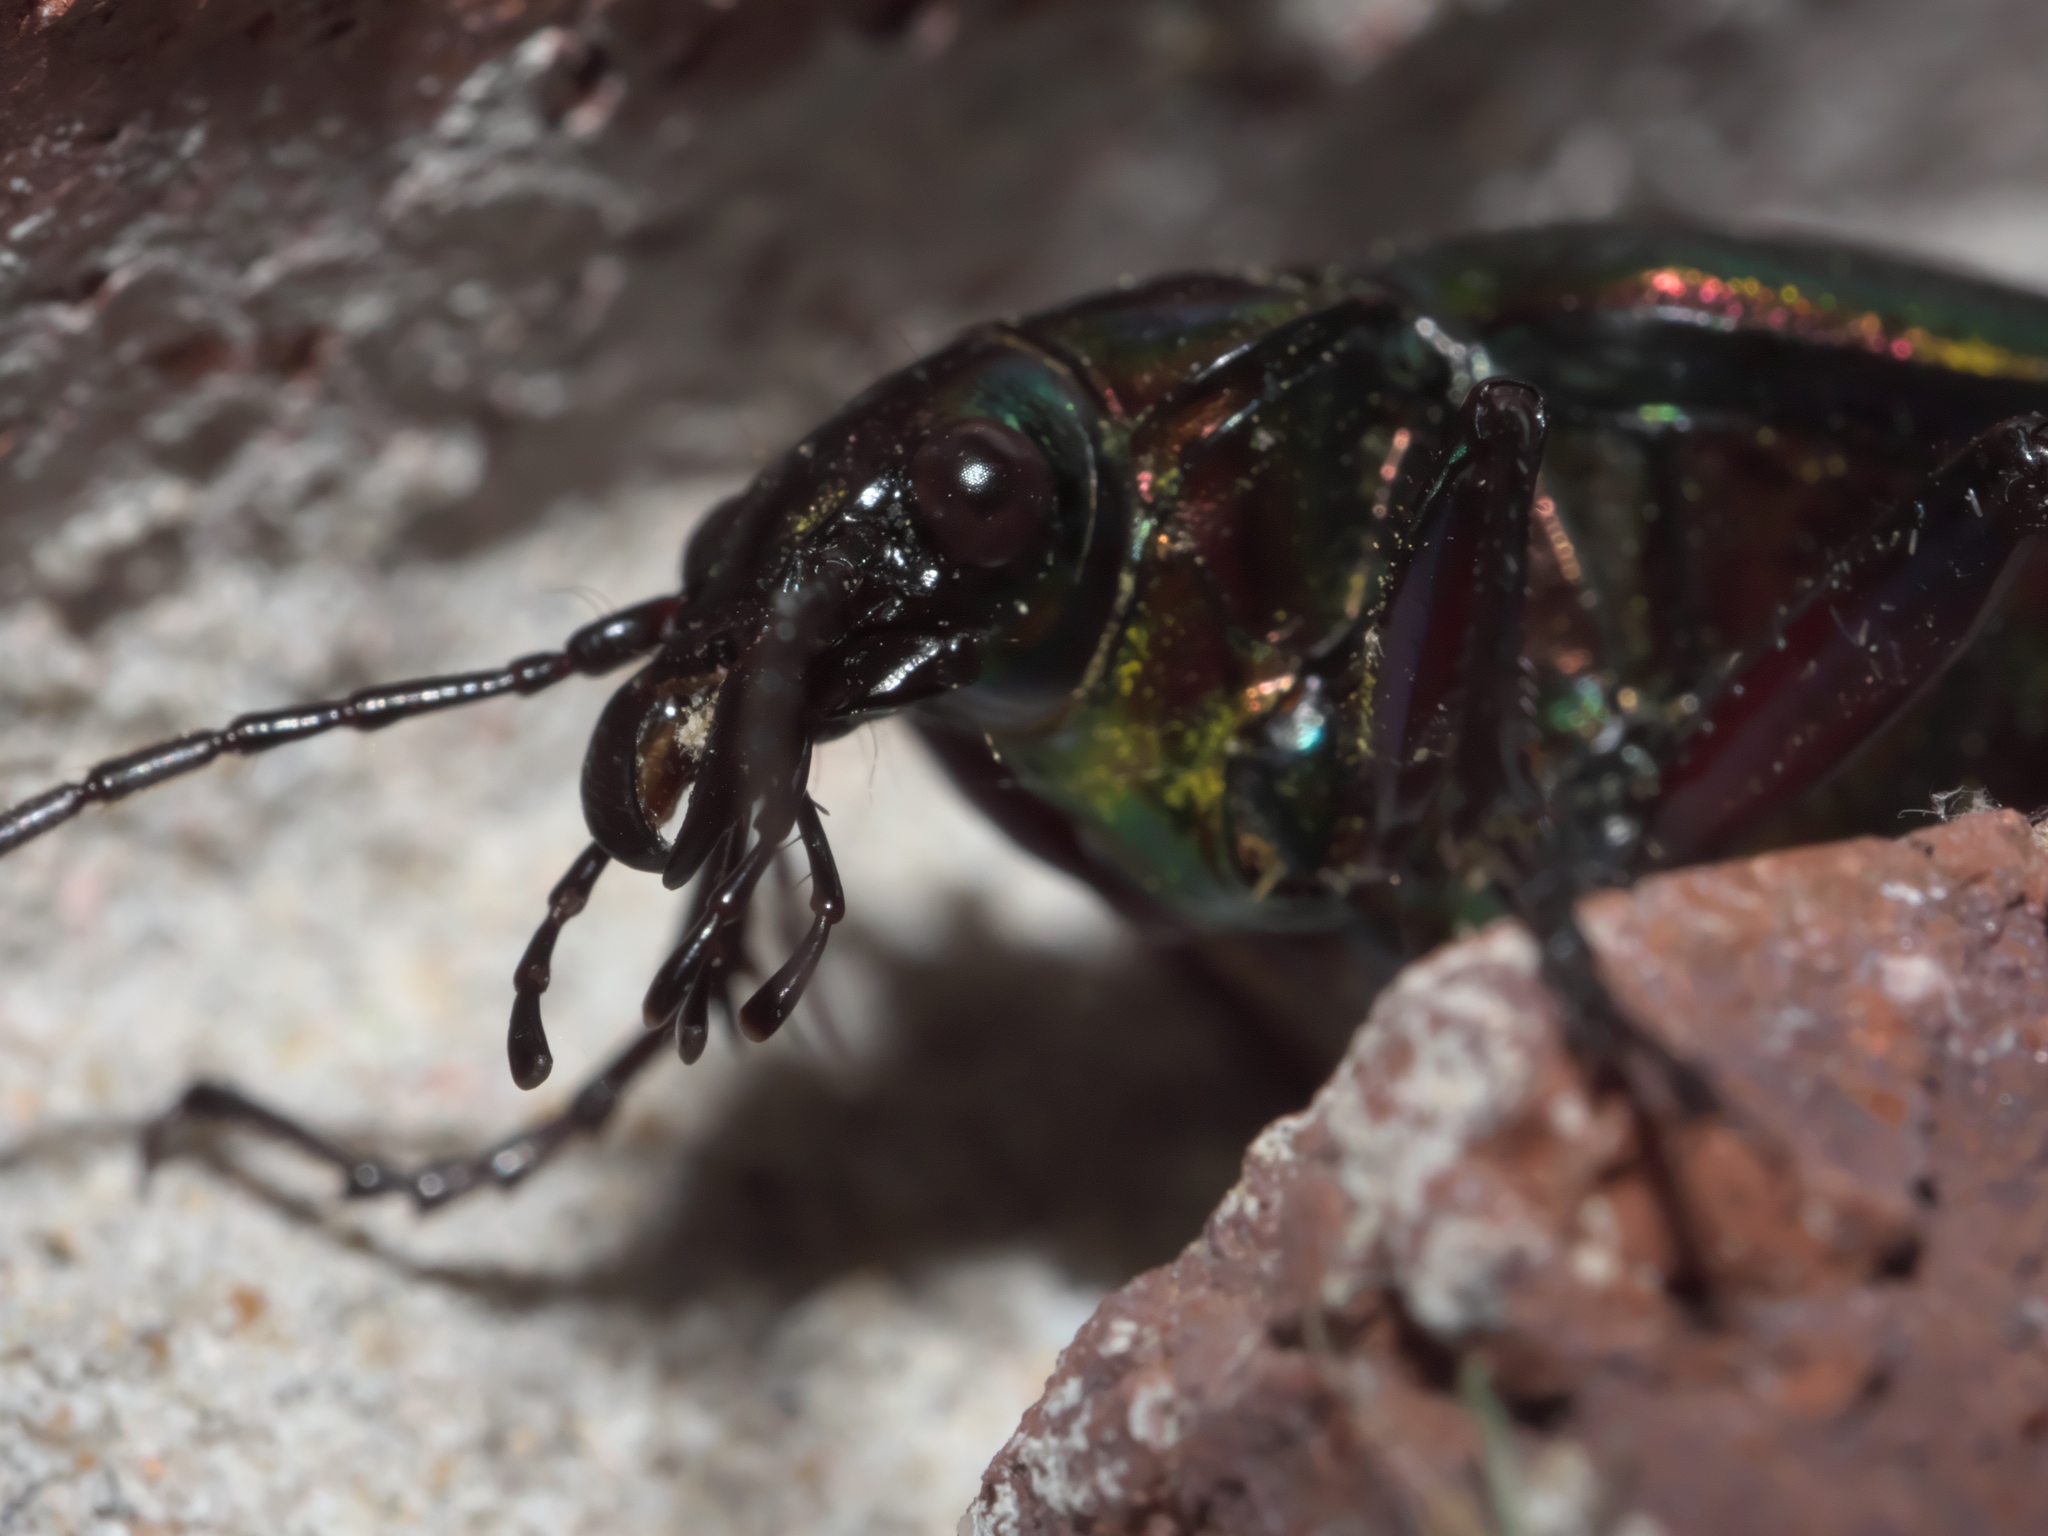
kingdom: Animalia
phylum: Arthropoda
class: Insecta
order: Coleoptera
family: Carabidae
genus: Calosoma
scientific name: Calosoma scrutator
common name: Fiery searcher beetle
